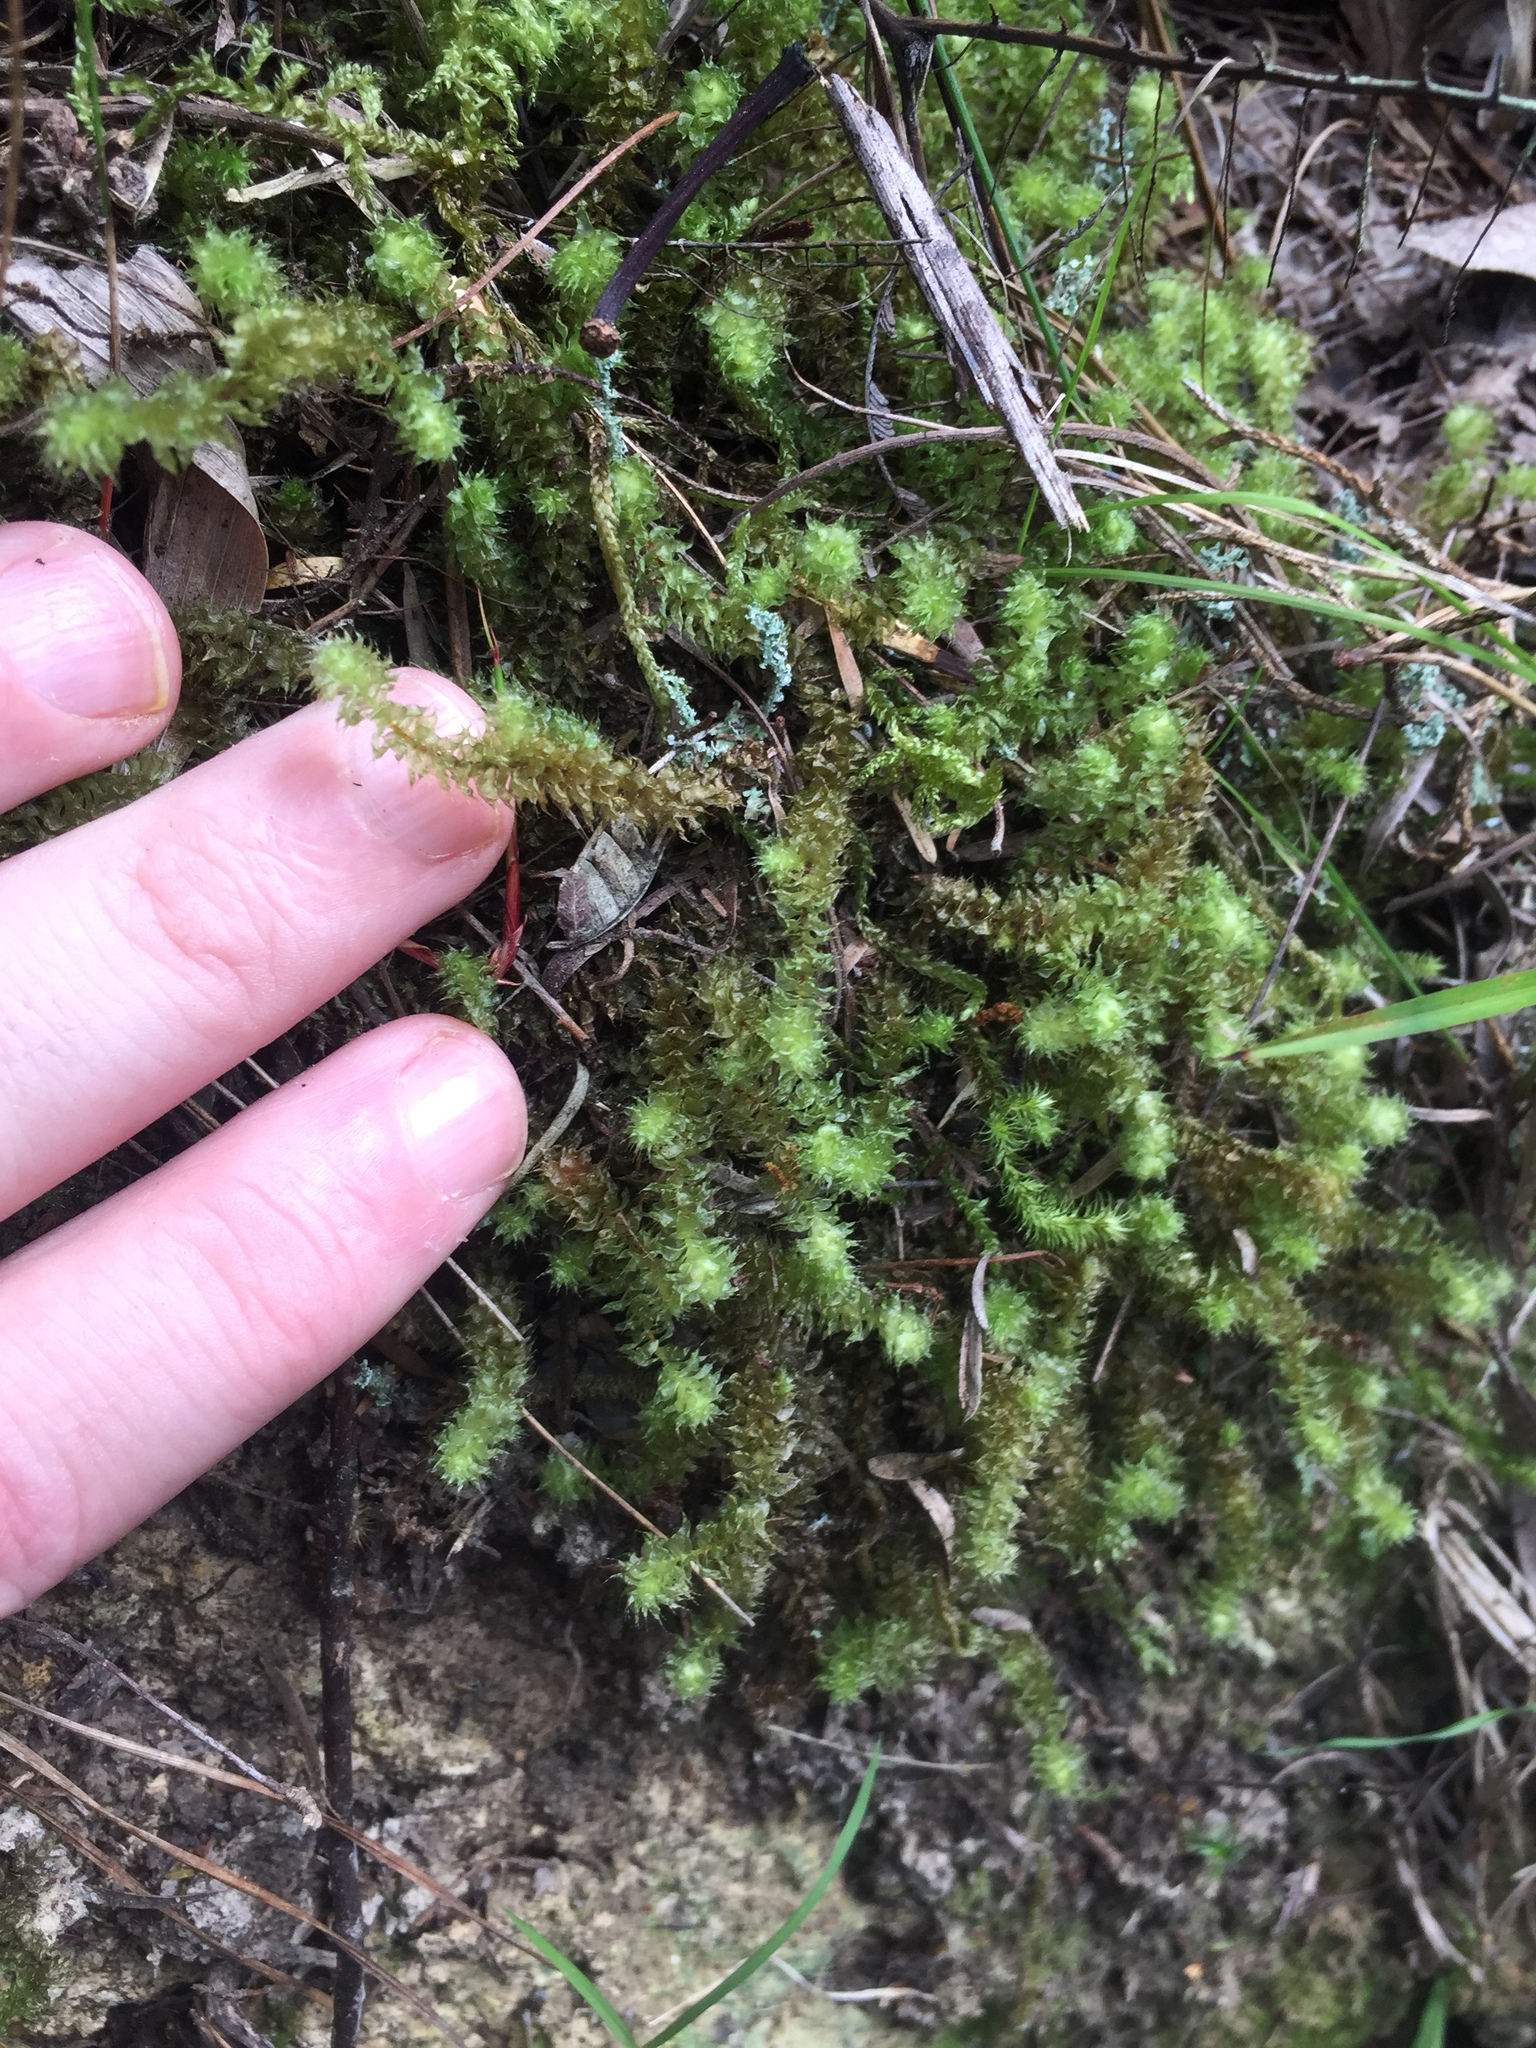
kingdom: Animalia
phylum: Arthropoda
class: Insecta
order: Hemiptera
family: Mesoveliidae
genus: Mniovelia
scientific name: Mniovelia kuscheli
